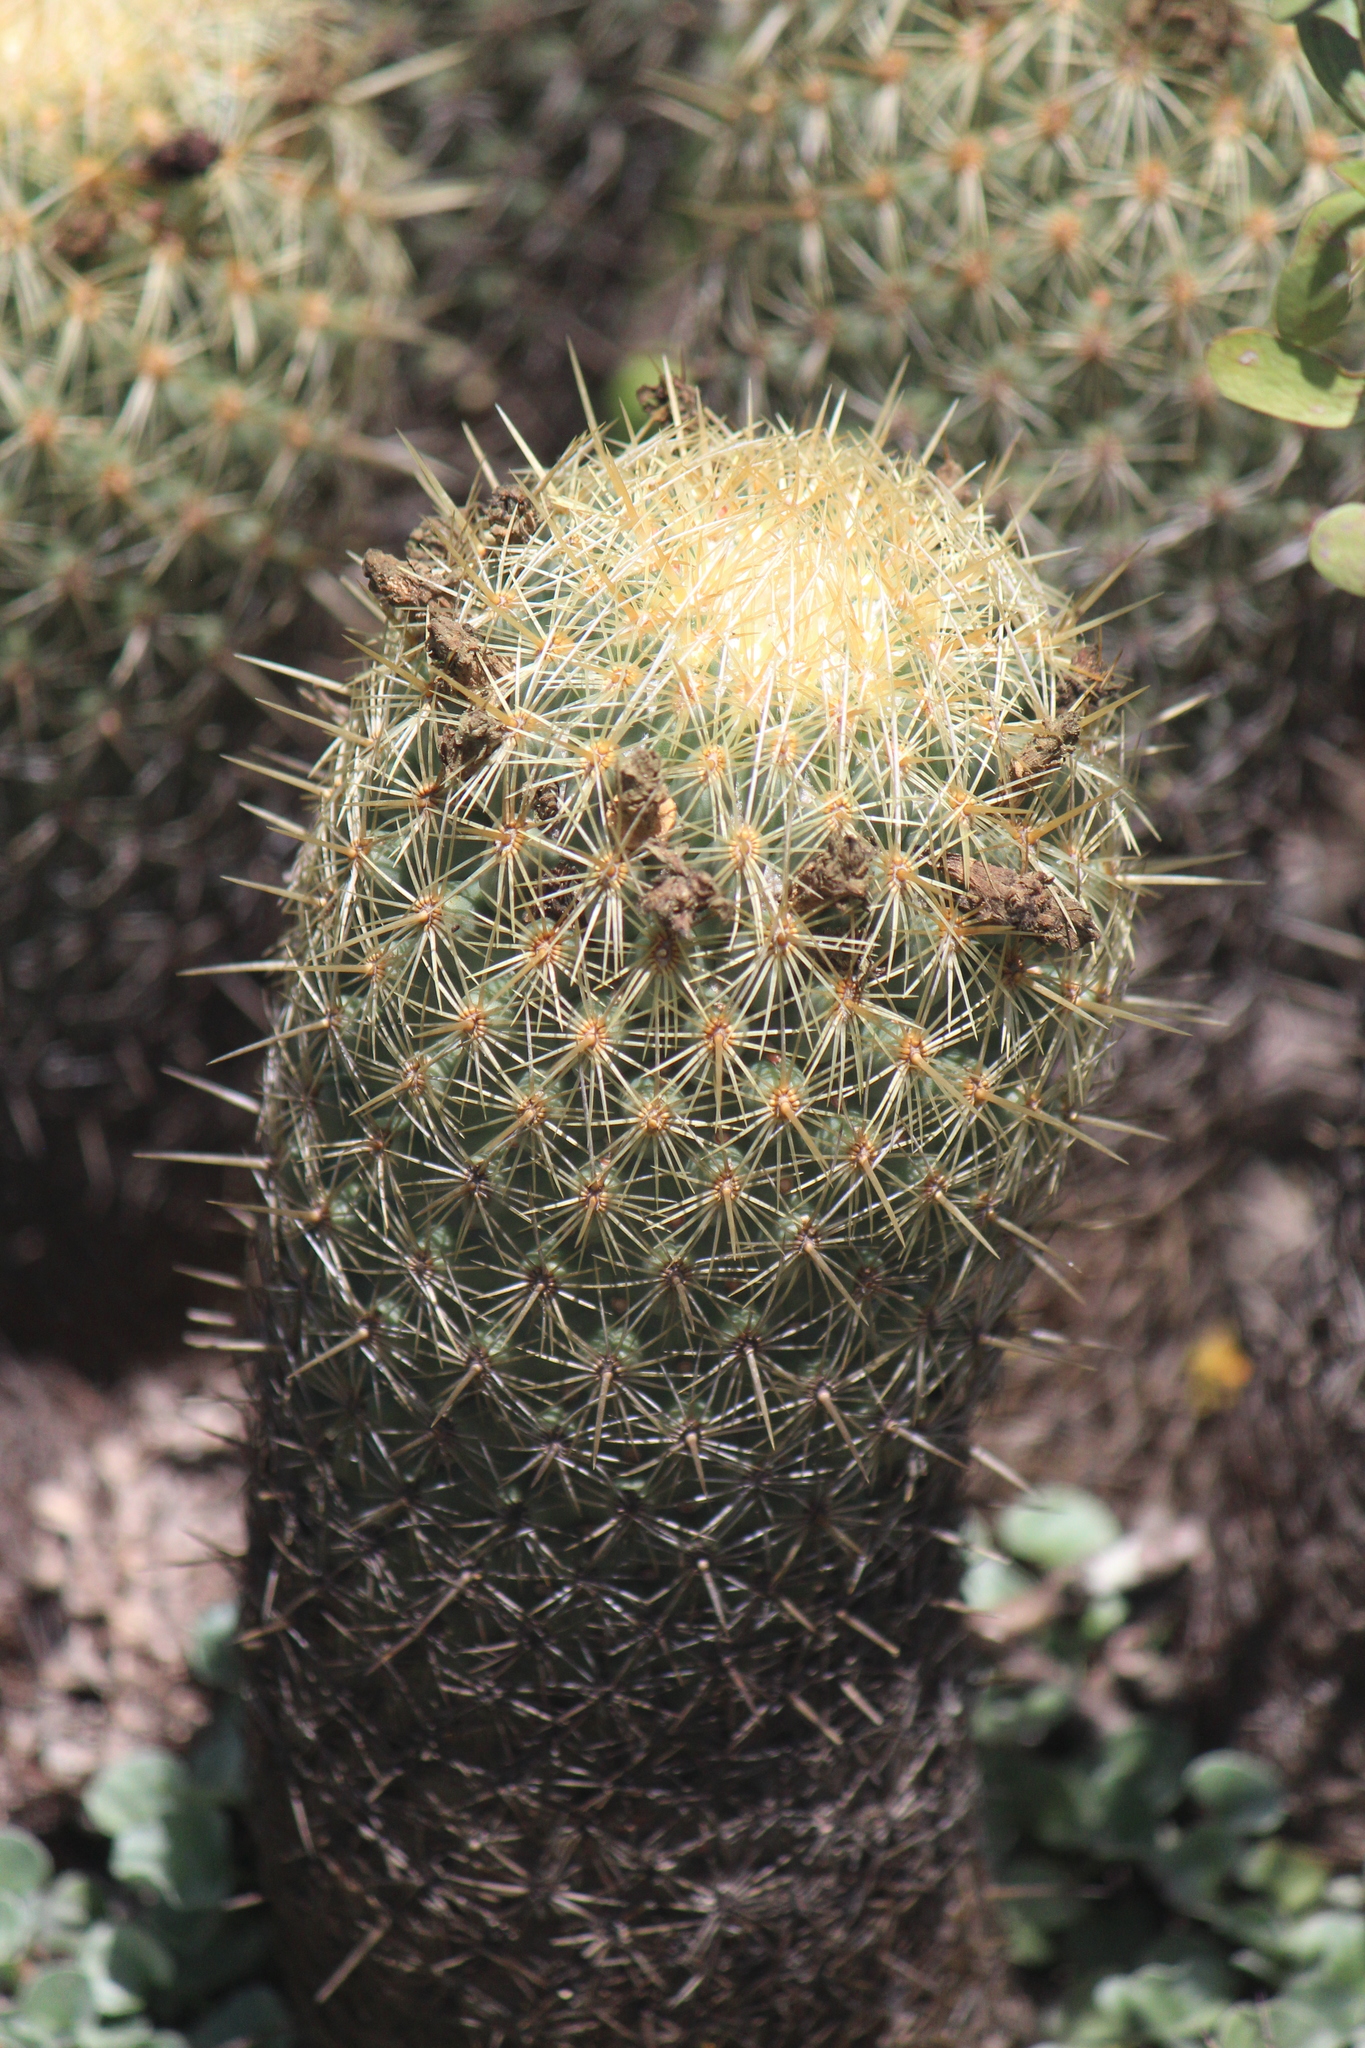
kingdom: Plantae
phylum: Tracheophyta
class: Magnoliopsida
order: Caryophyllales
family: Cactaceae
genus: Coryphantha
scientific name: Coryphantha erecta
